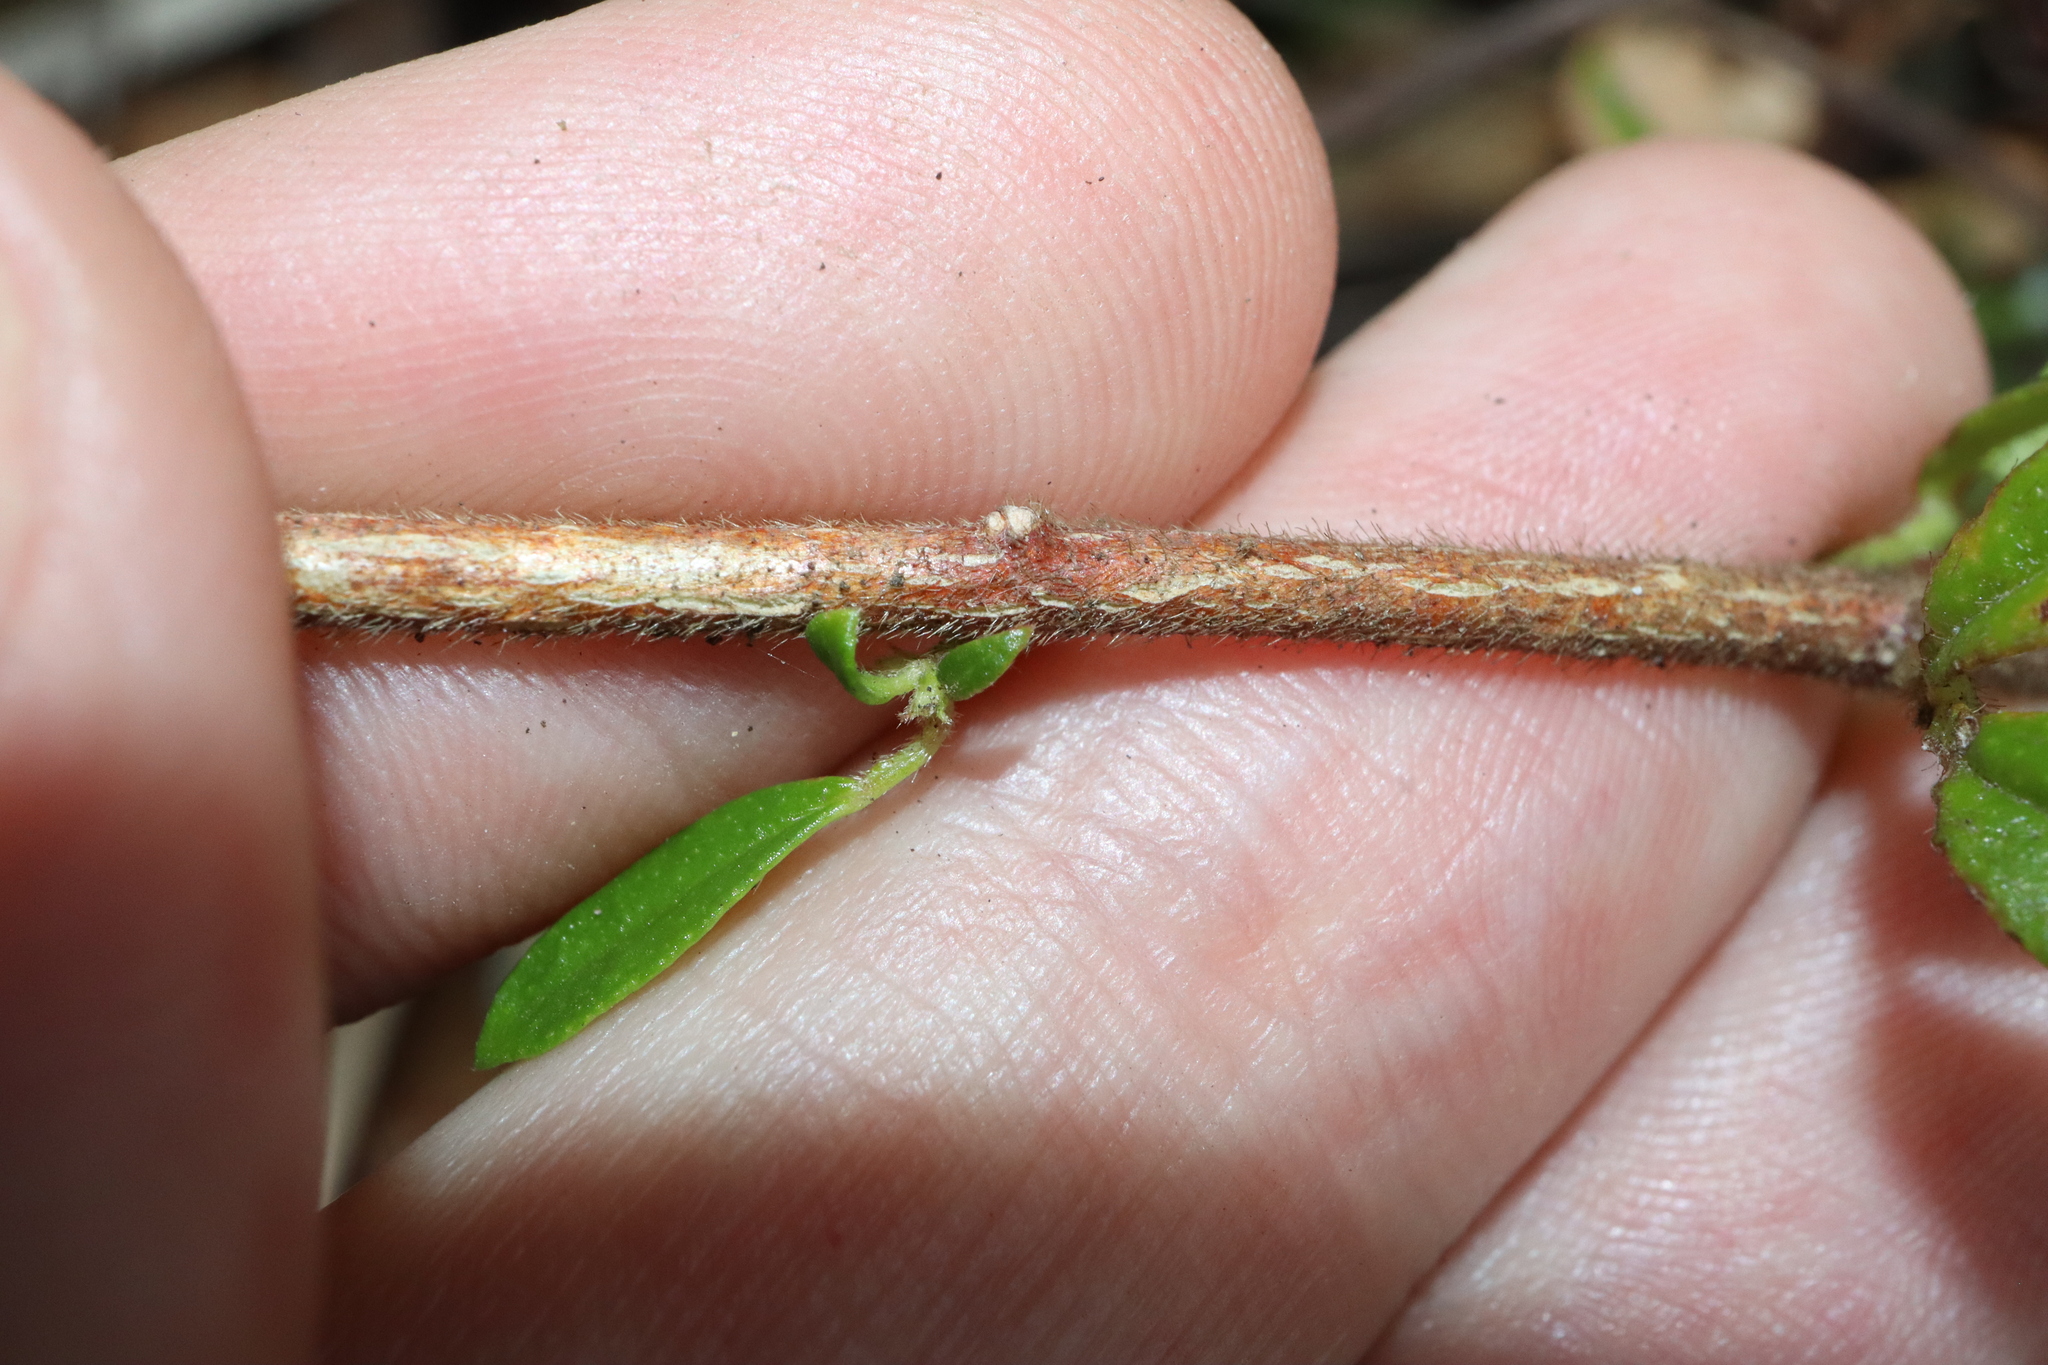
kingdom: Plantae
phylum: Tracheophyta
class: Magnoliopsida
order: Sapindales
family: Rutaceae
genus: Zieria
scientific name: Zieria pilosa
